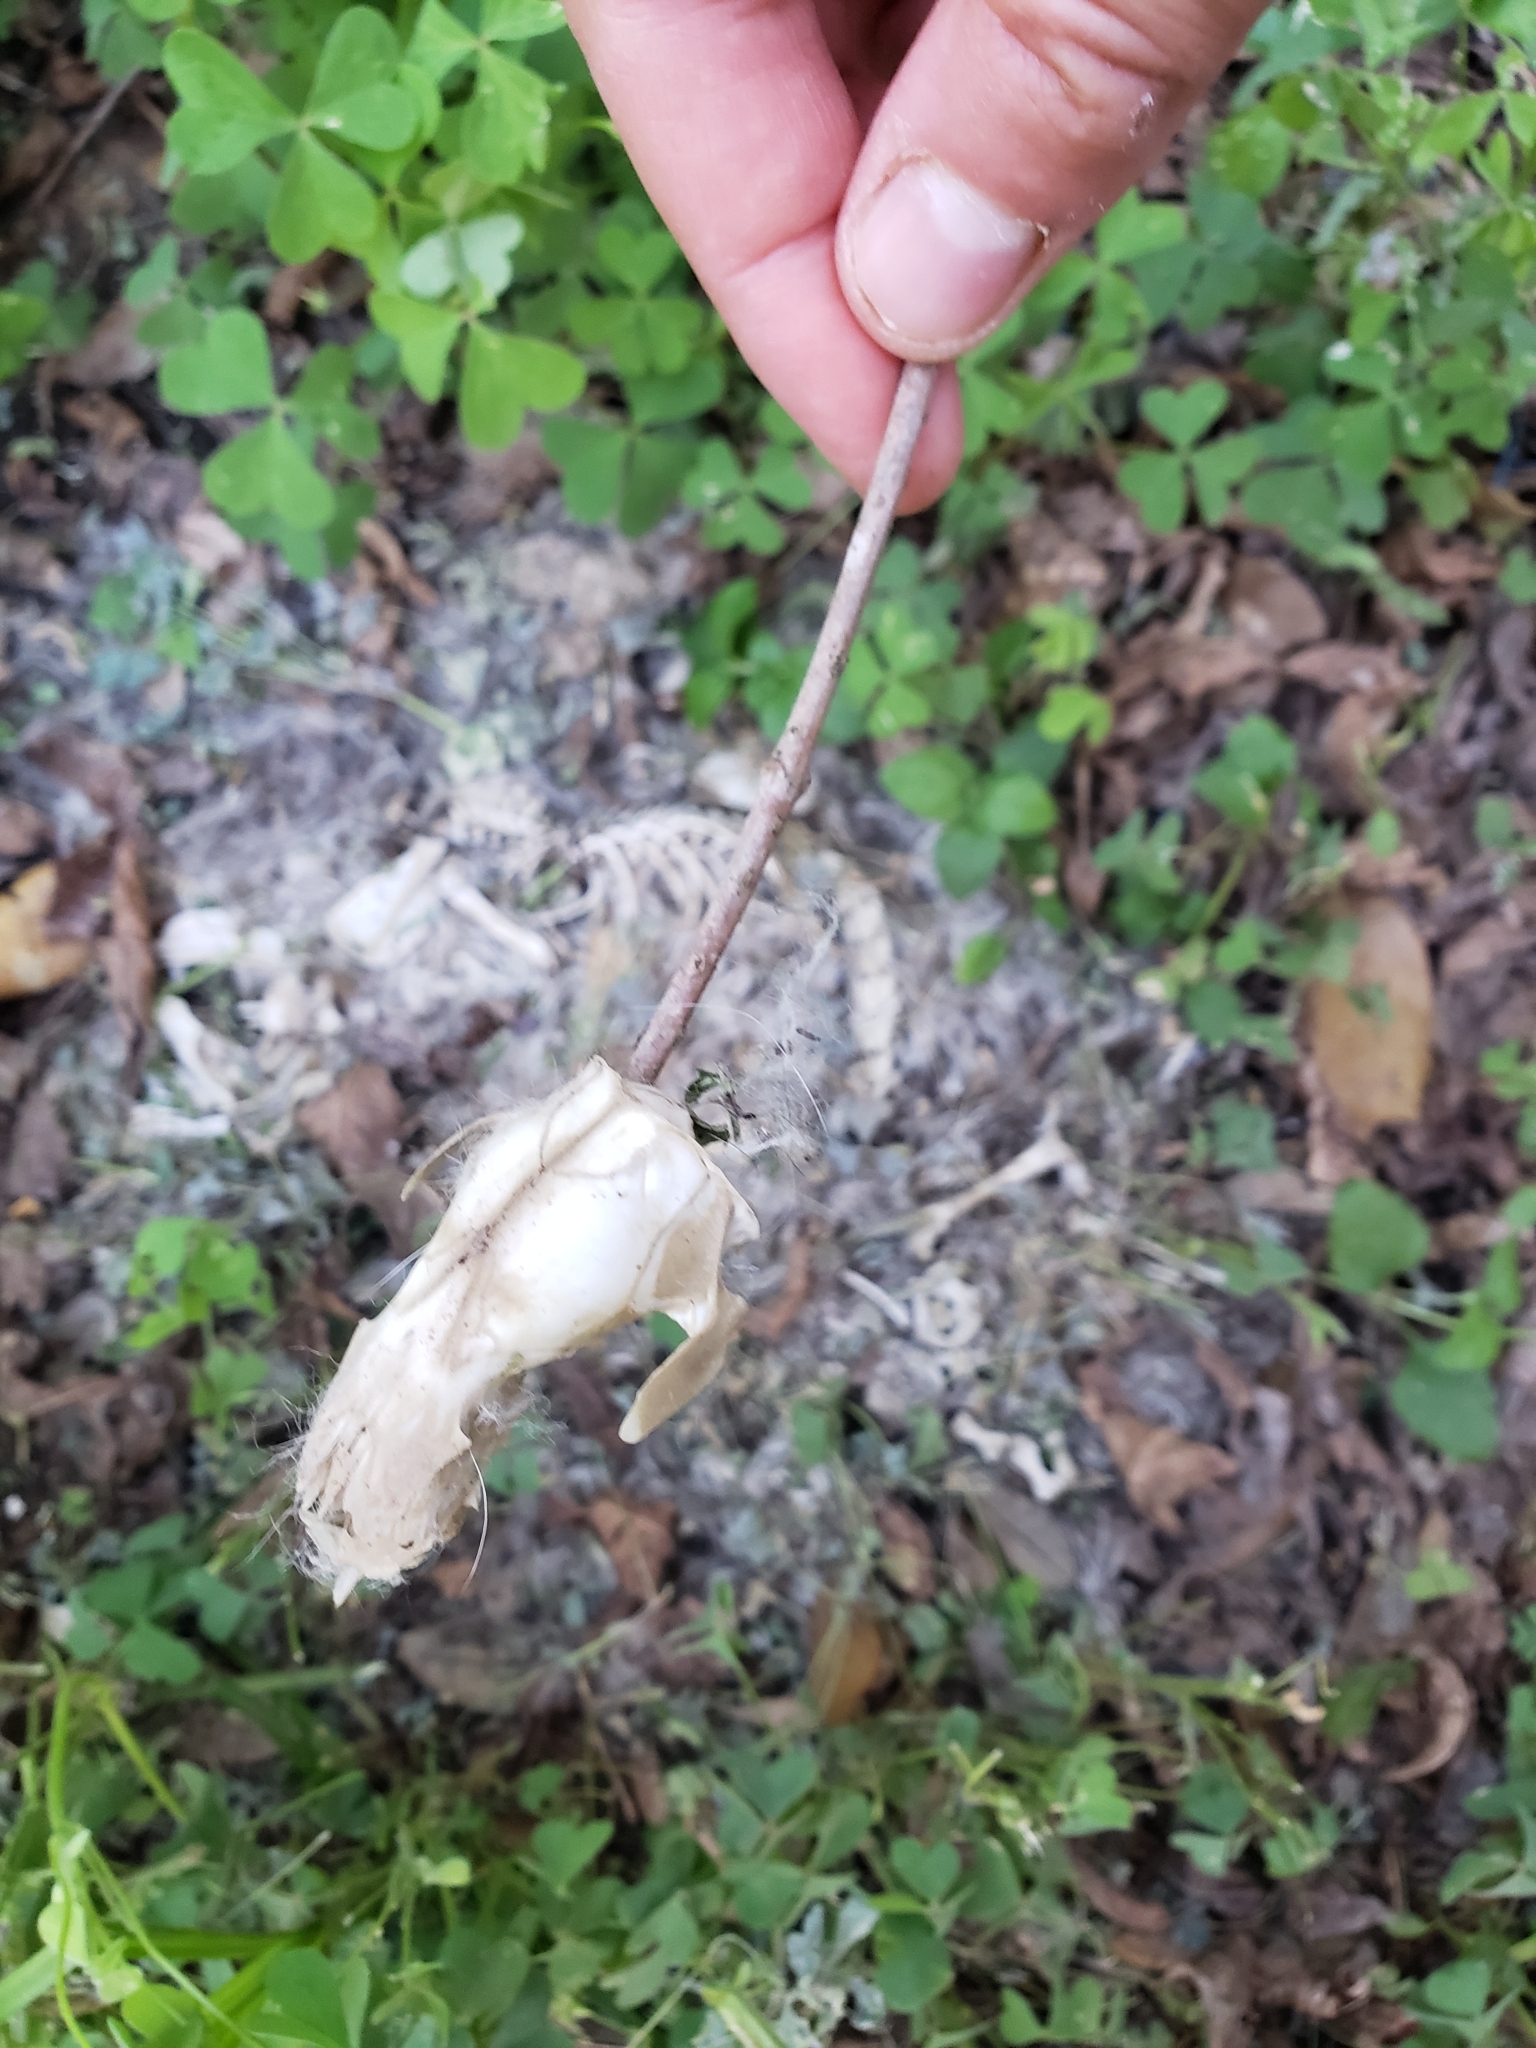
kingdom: Animalia
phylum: Chordata
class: Mammalia
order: Didelphimorphia
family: Didelphidae
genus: Didelphis
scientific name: Didelphis virginiana
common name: Virginia opossum
